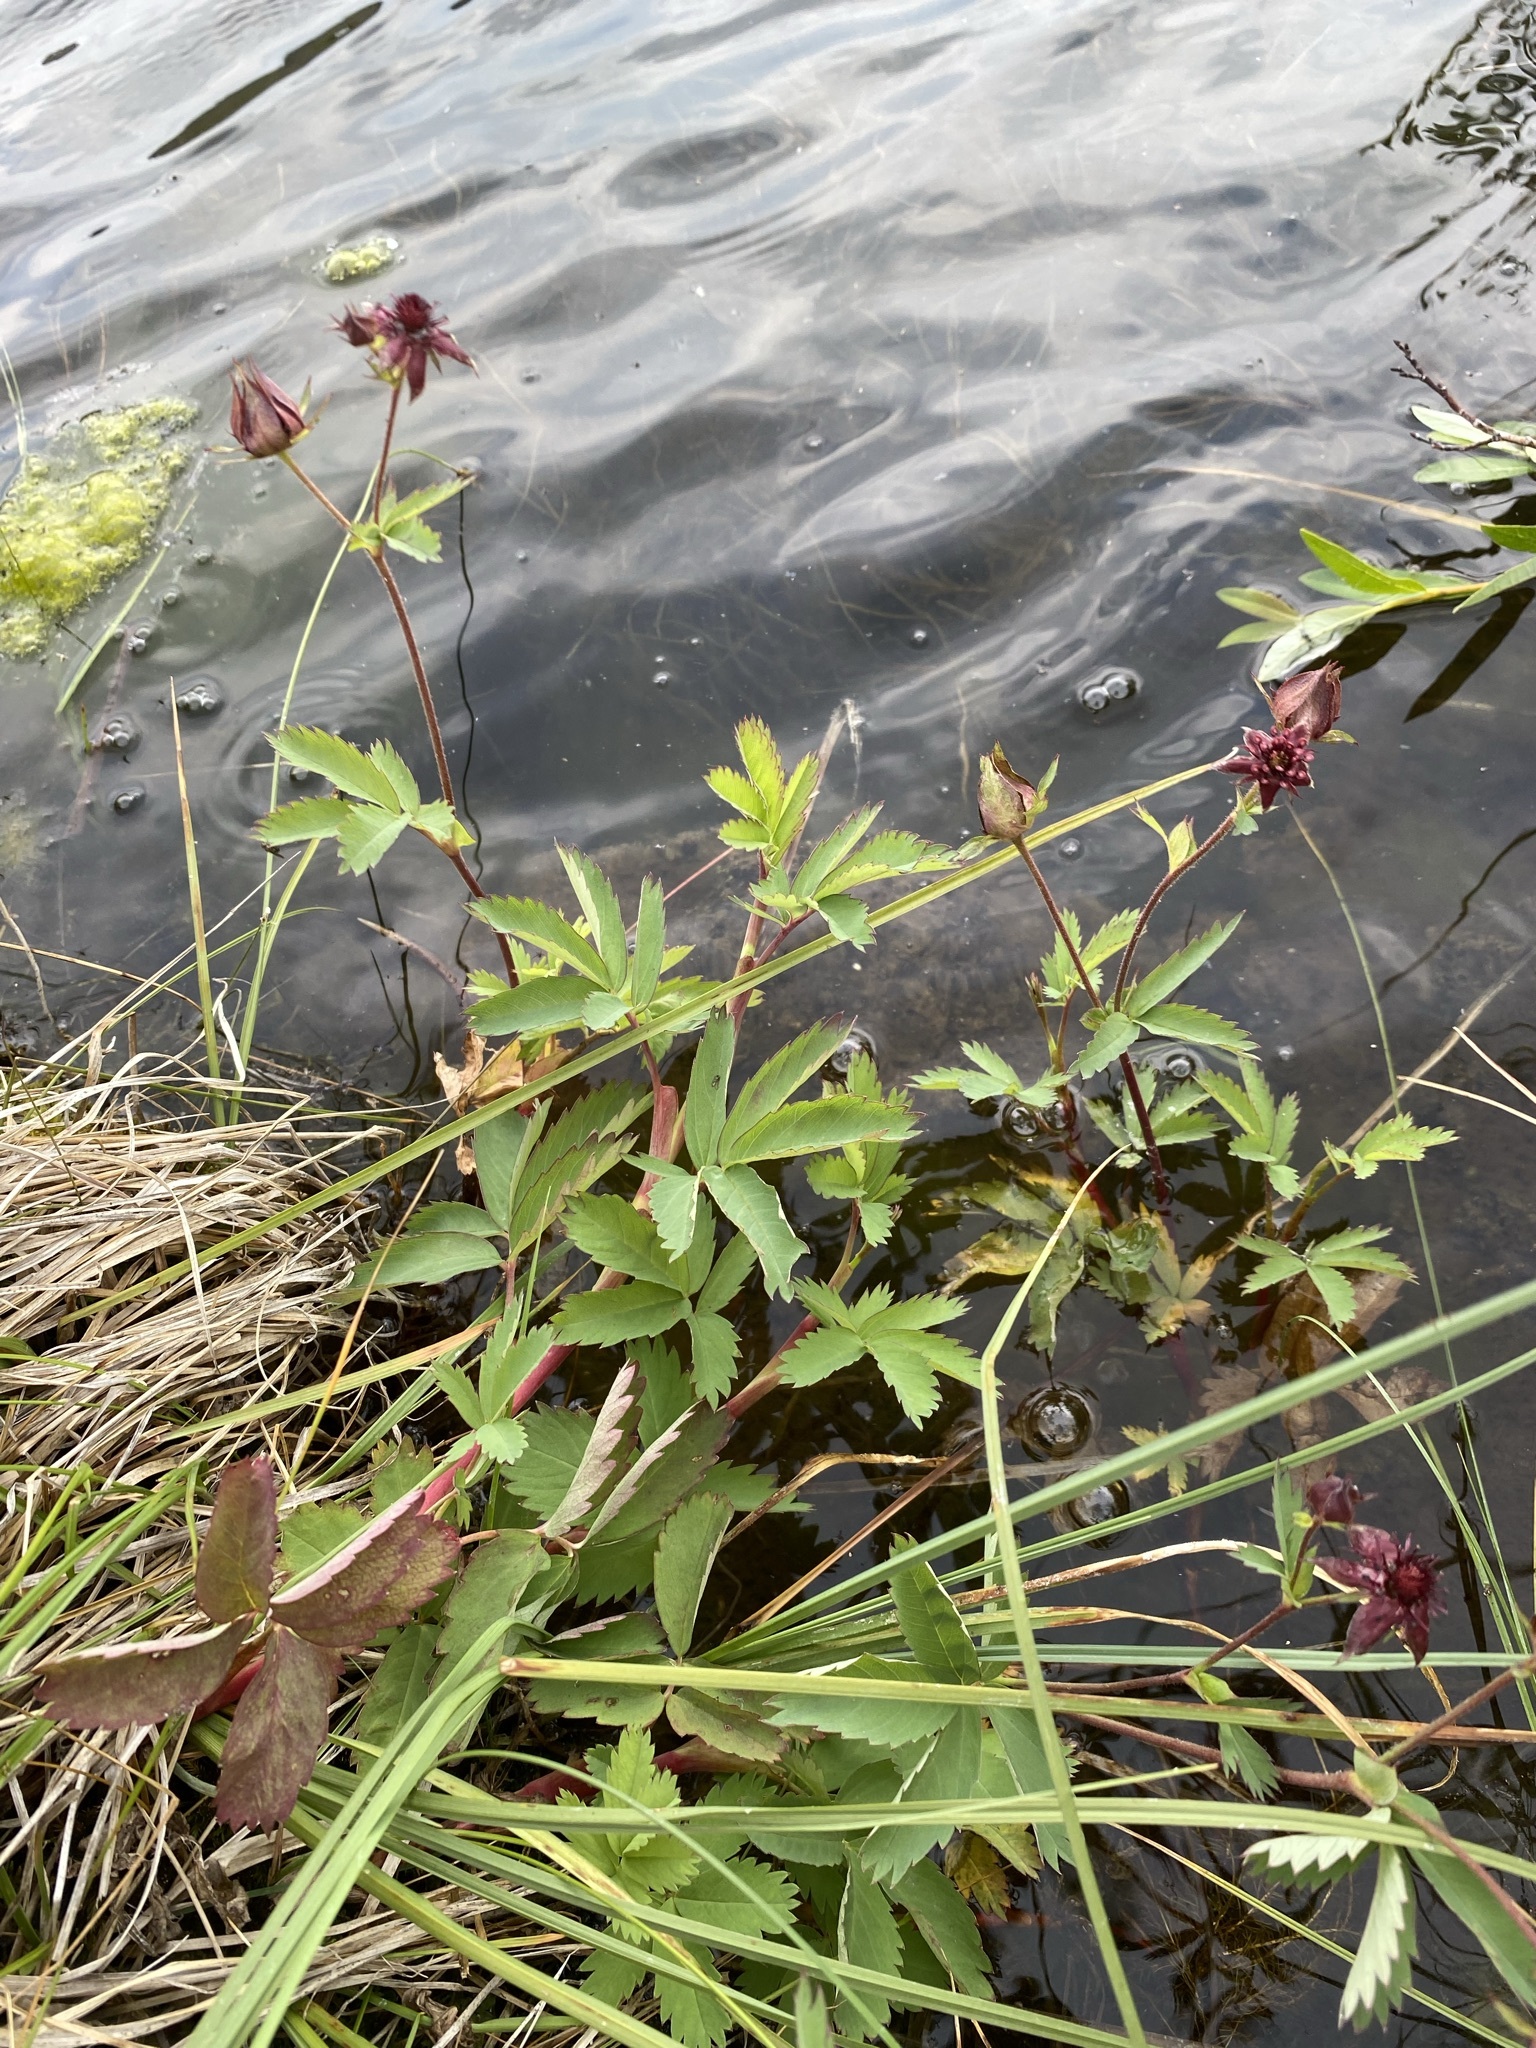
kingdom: Plantae
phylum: Tracheophyta
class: Magnoliopsida
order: Rosales
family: Rosaceae
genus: Comarum
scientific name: Comarum palustre
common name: Marsh cinquefoil
